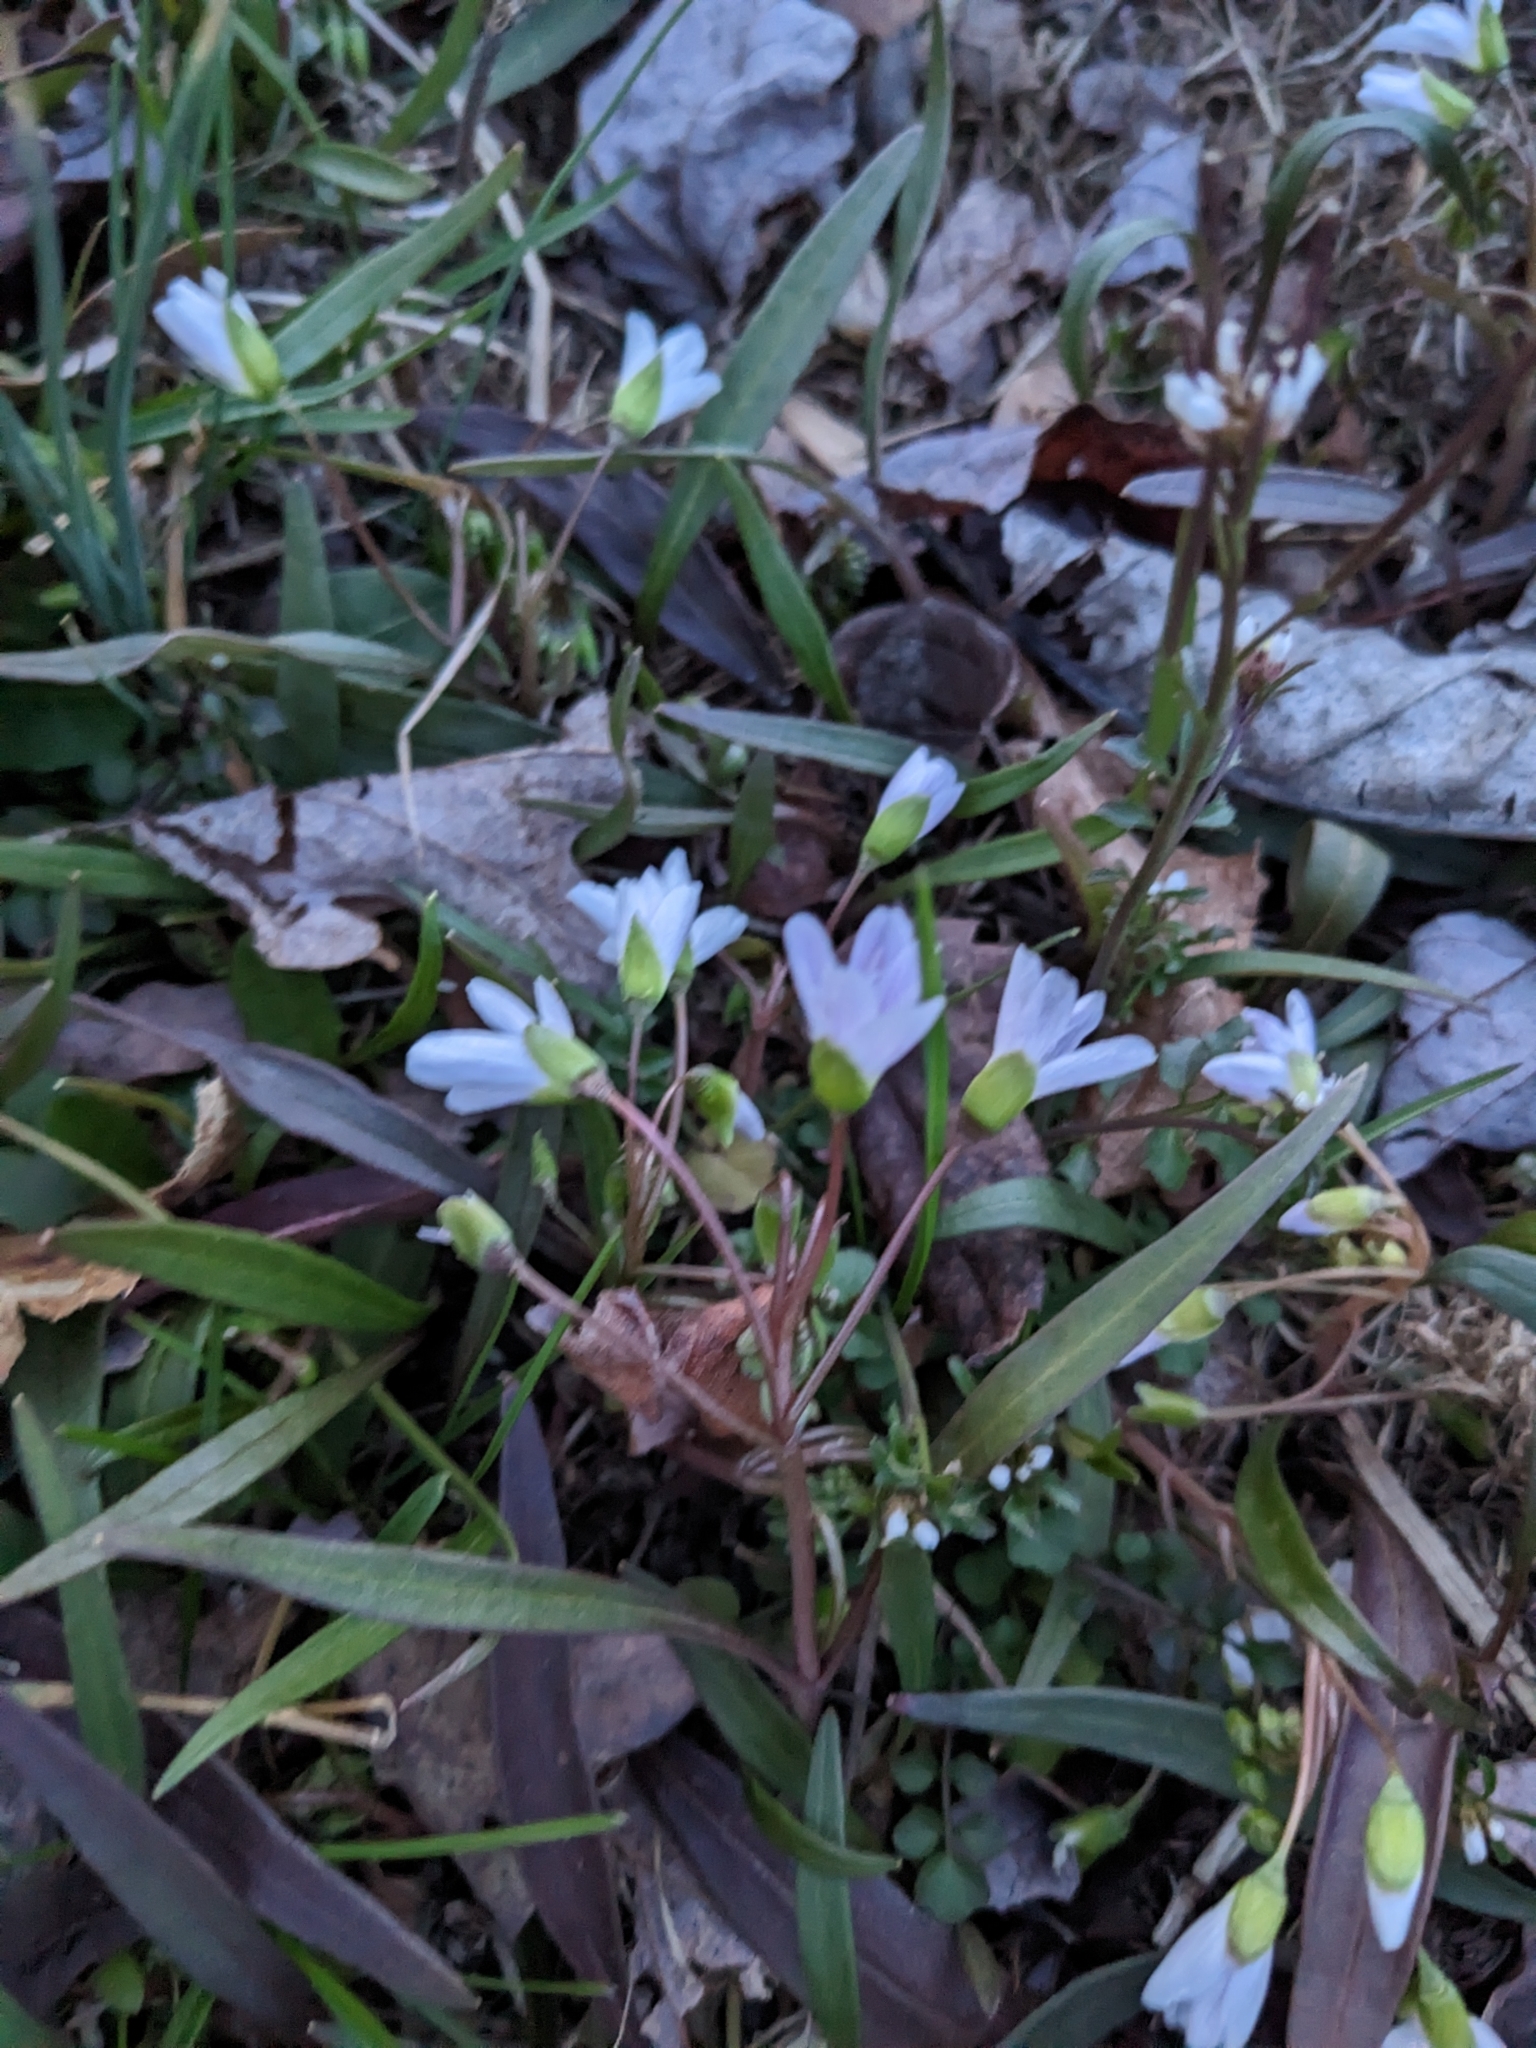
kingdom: Plantae
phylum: Tracheophyta
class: Magnoliopsida
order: Caryophyllales
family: Montiaceae
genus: Claytonia
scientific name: Claytonia virginica
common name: Virginia springbeauty
